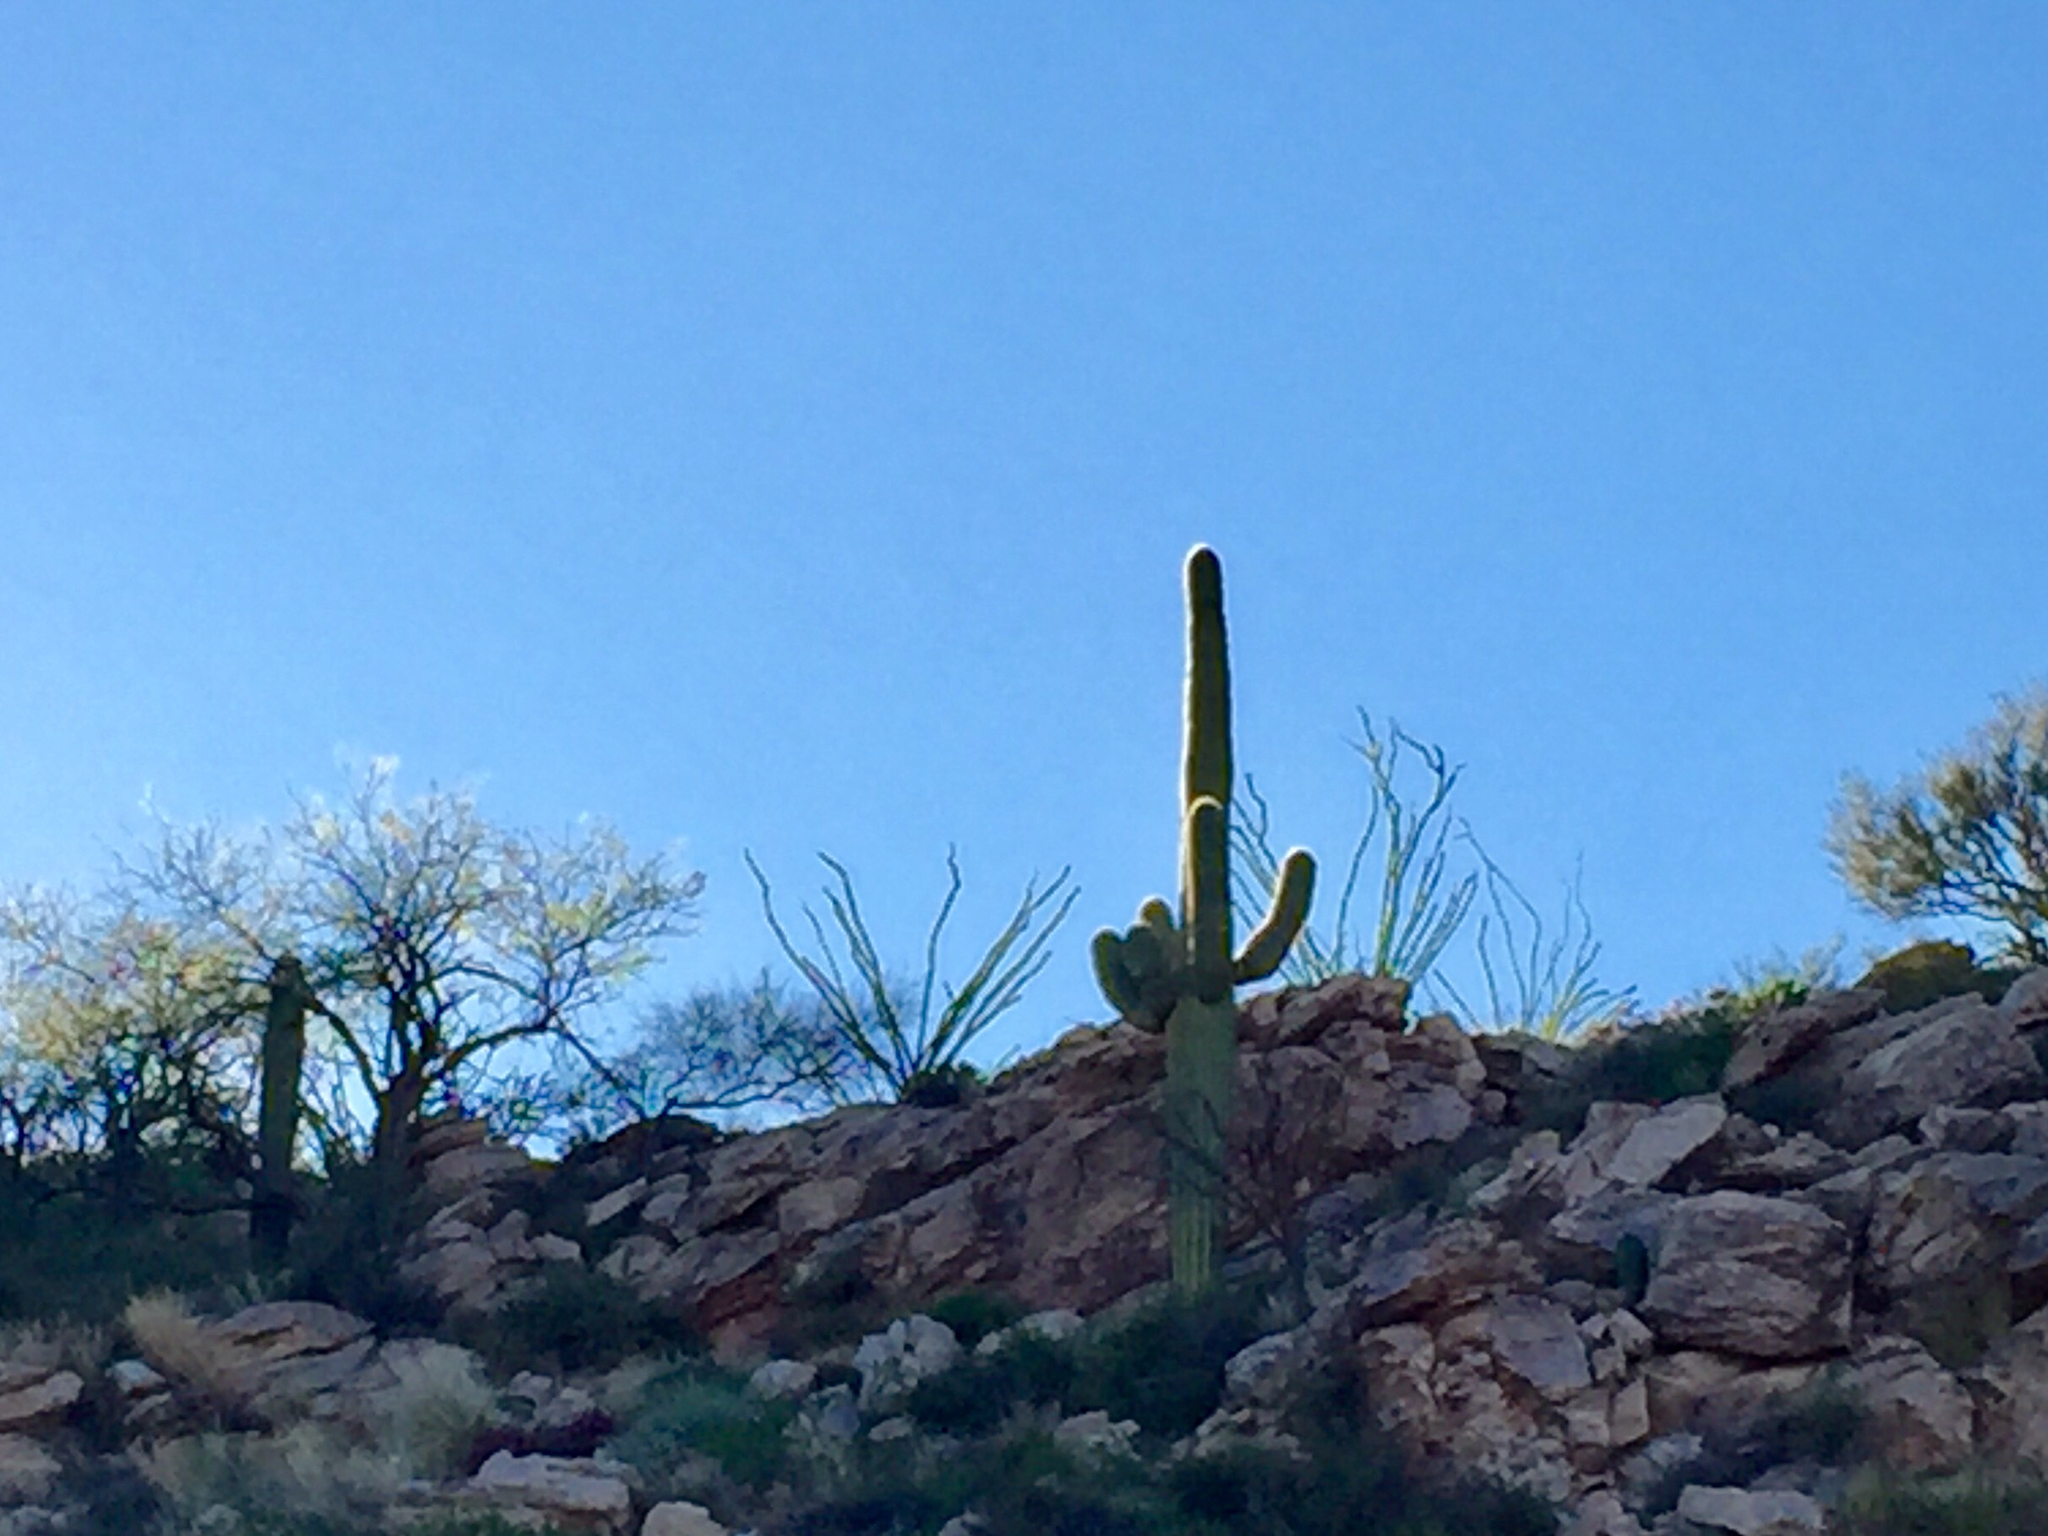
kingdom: Plantae
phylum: Tracheophyta
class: Magnoliopsida
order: Caryophyllales
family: Cactaceae
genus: Carnegiea
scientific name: Carnegiea gigantea
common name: Saguaro
